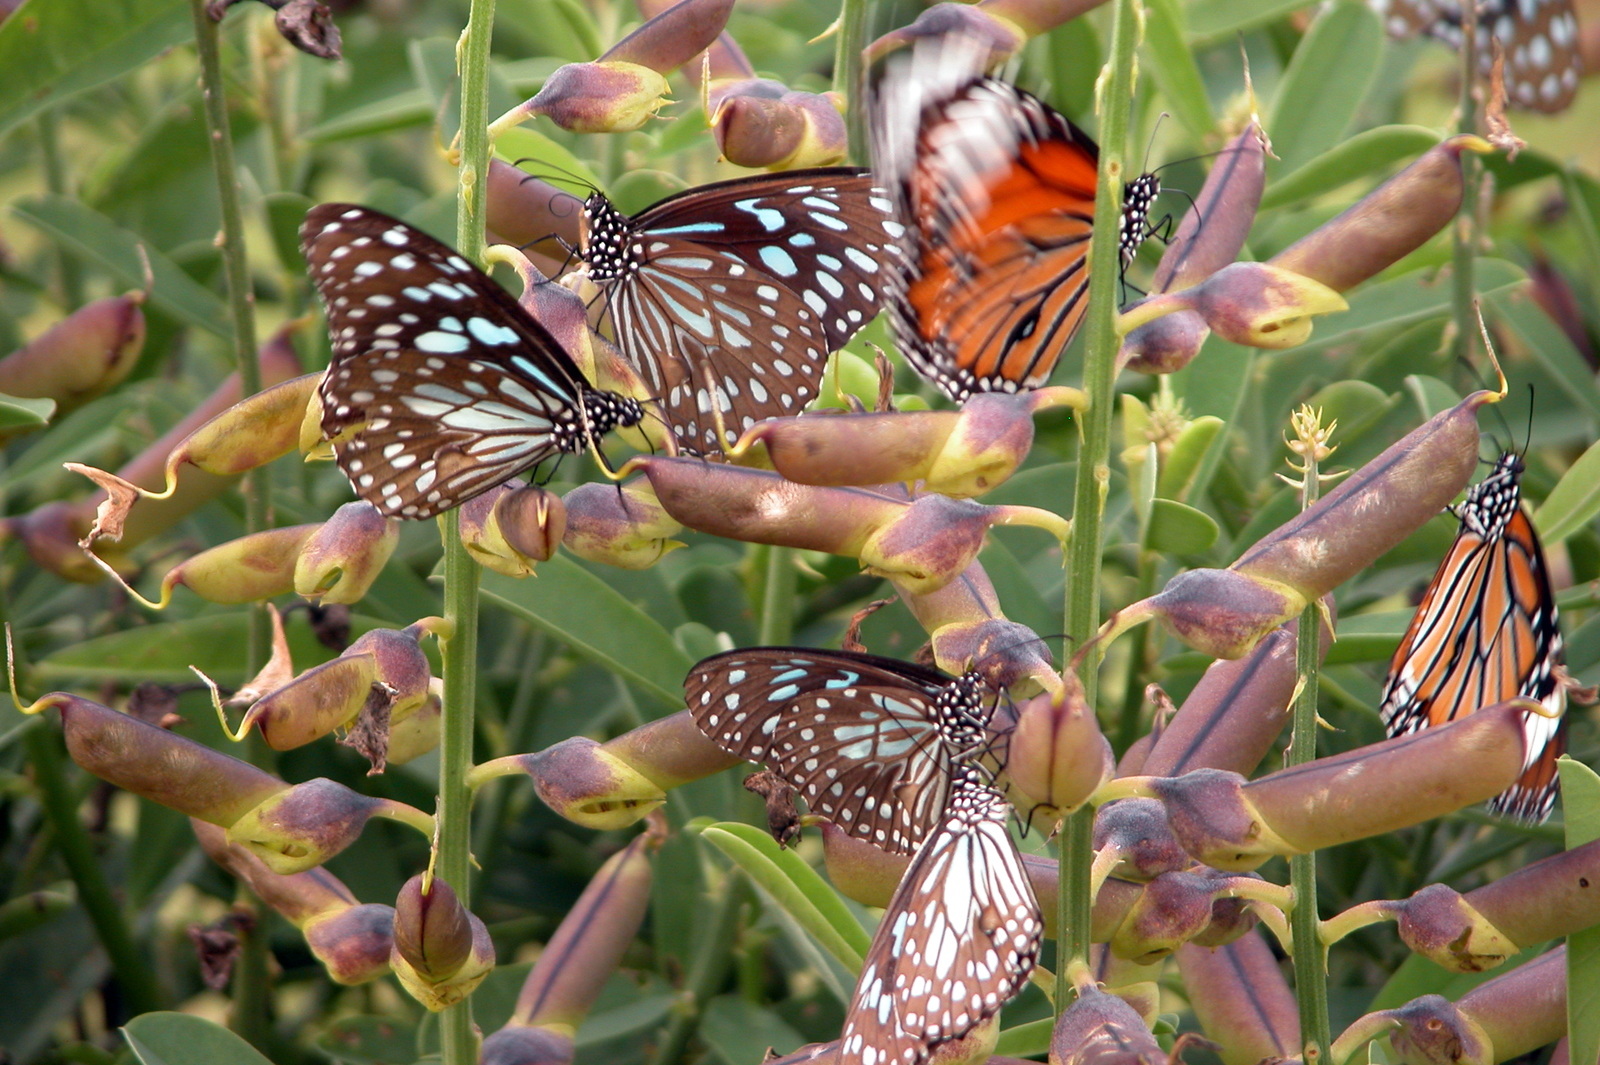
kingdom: Animalia
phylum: Arthropoda
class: Insecta
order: Lepidoptera
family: Nymphalidae
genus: Danaus
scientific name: Danaus genutia
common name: Common tiger butterfly
